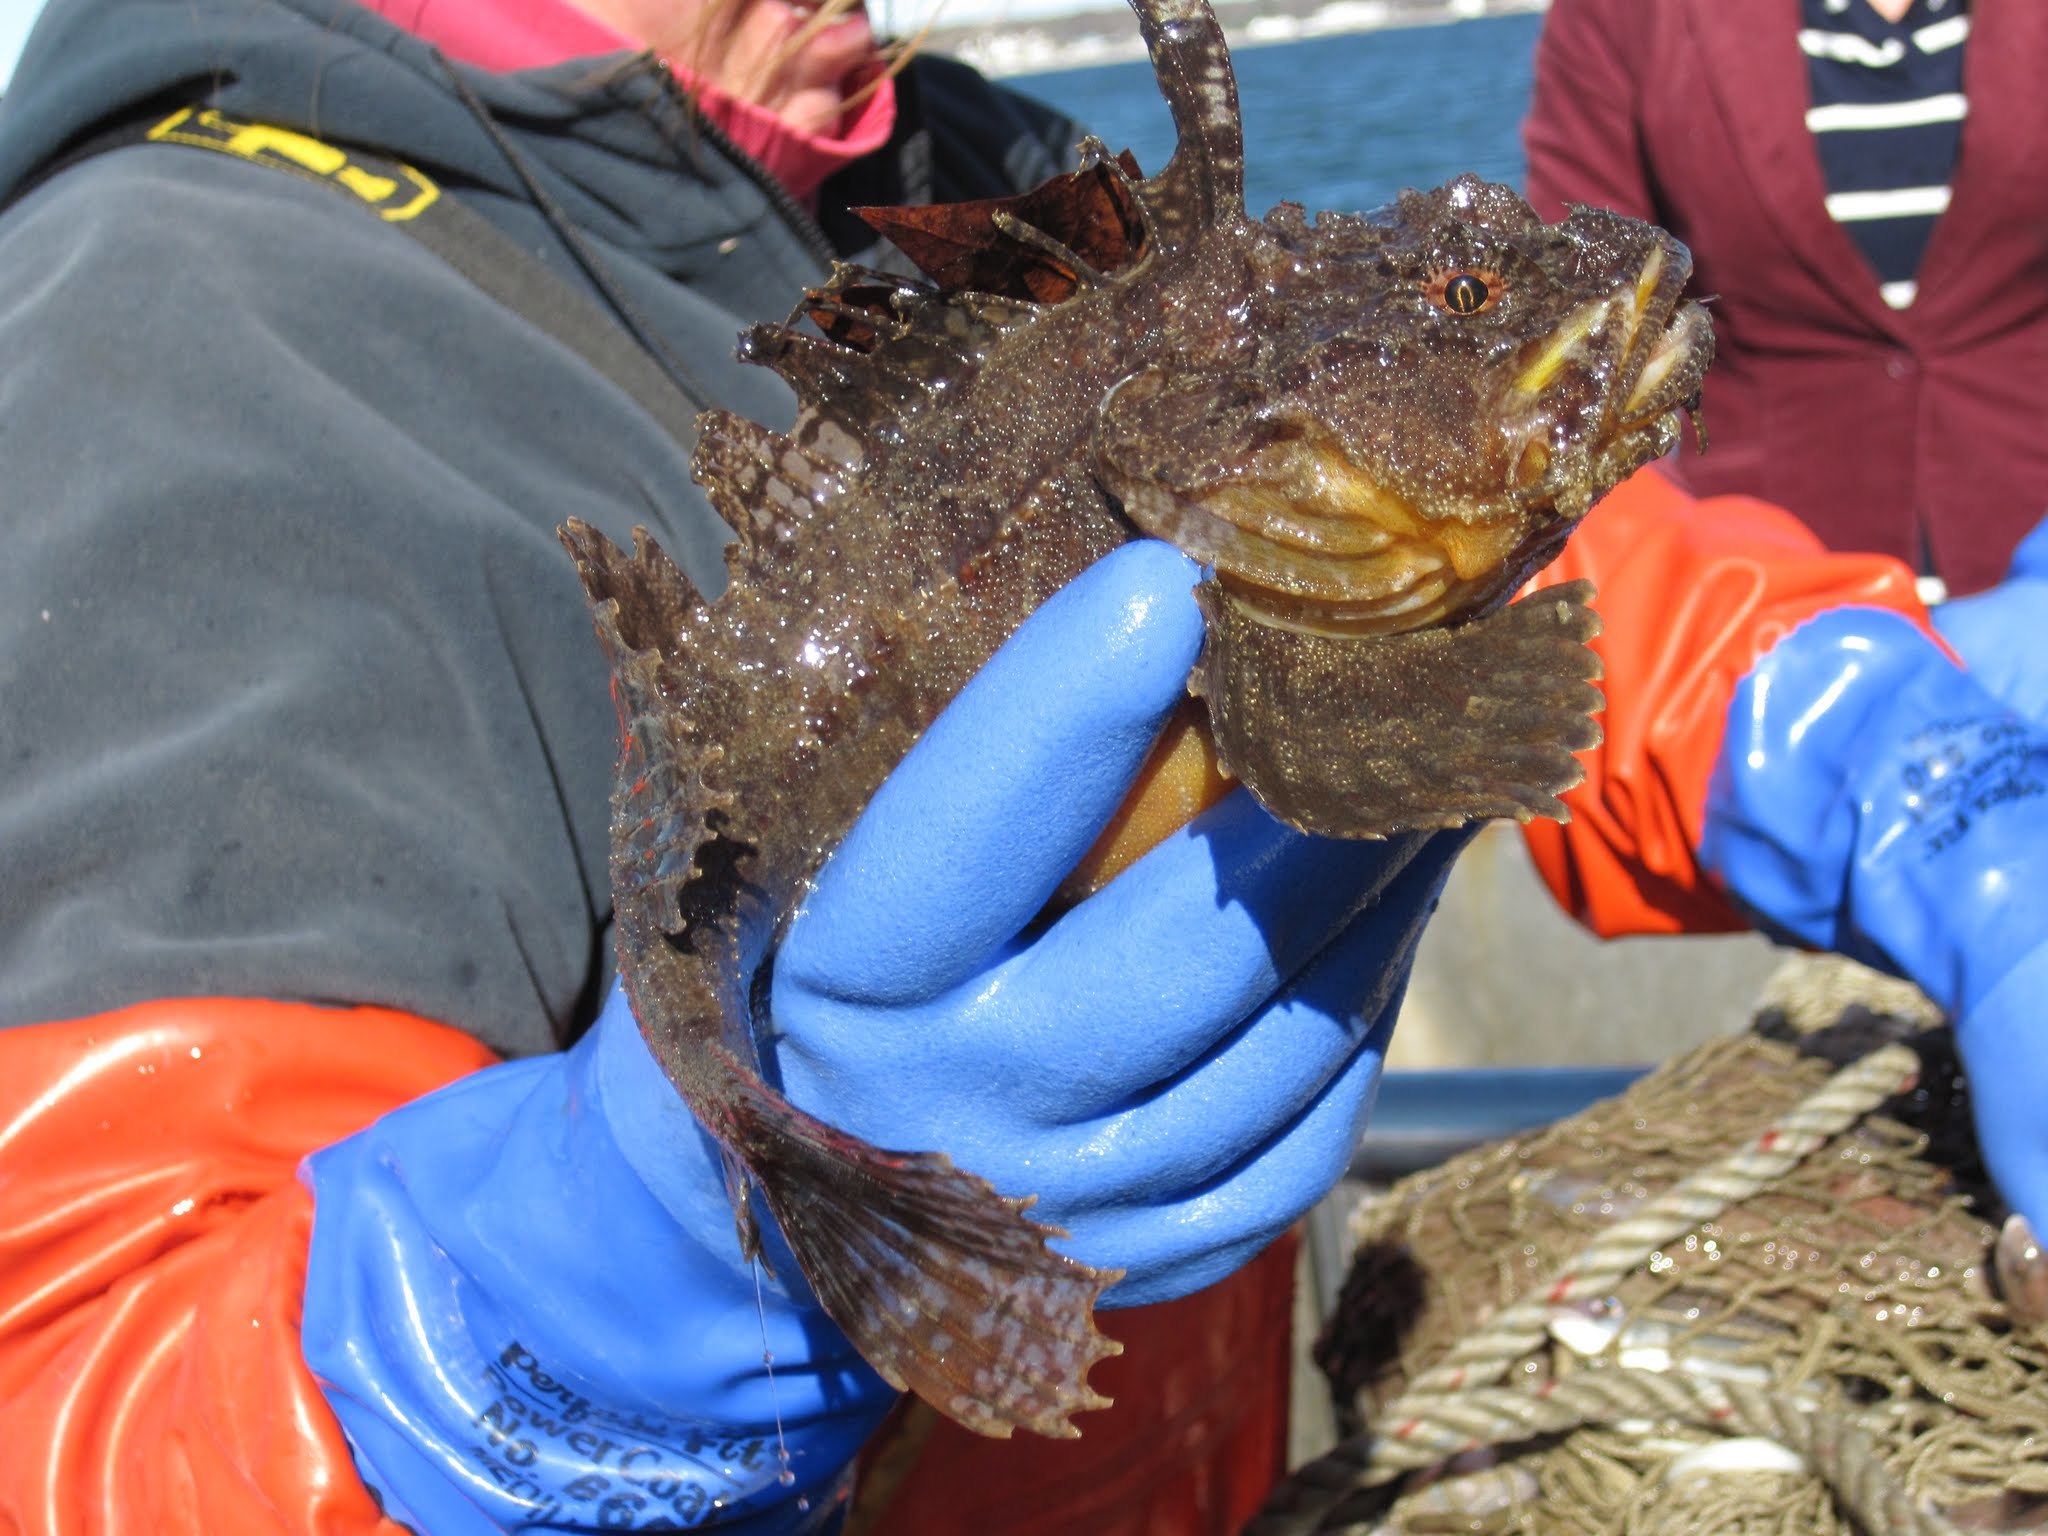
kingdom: Animalia
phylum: Chordata
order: Scorpaeniformes
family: Hemitripteridae
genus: Hemitripterus
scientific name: Hemitripterus americanus
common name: Sea raven
